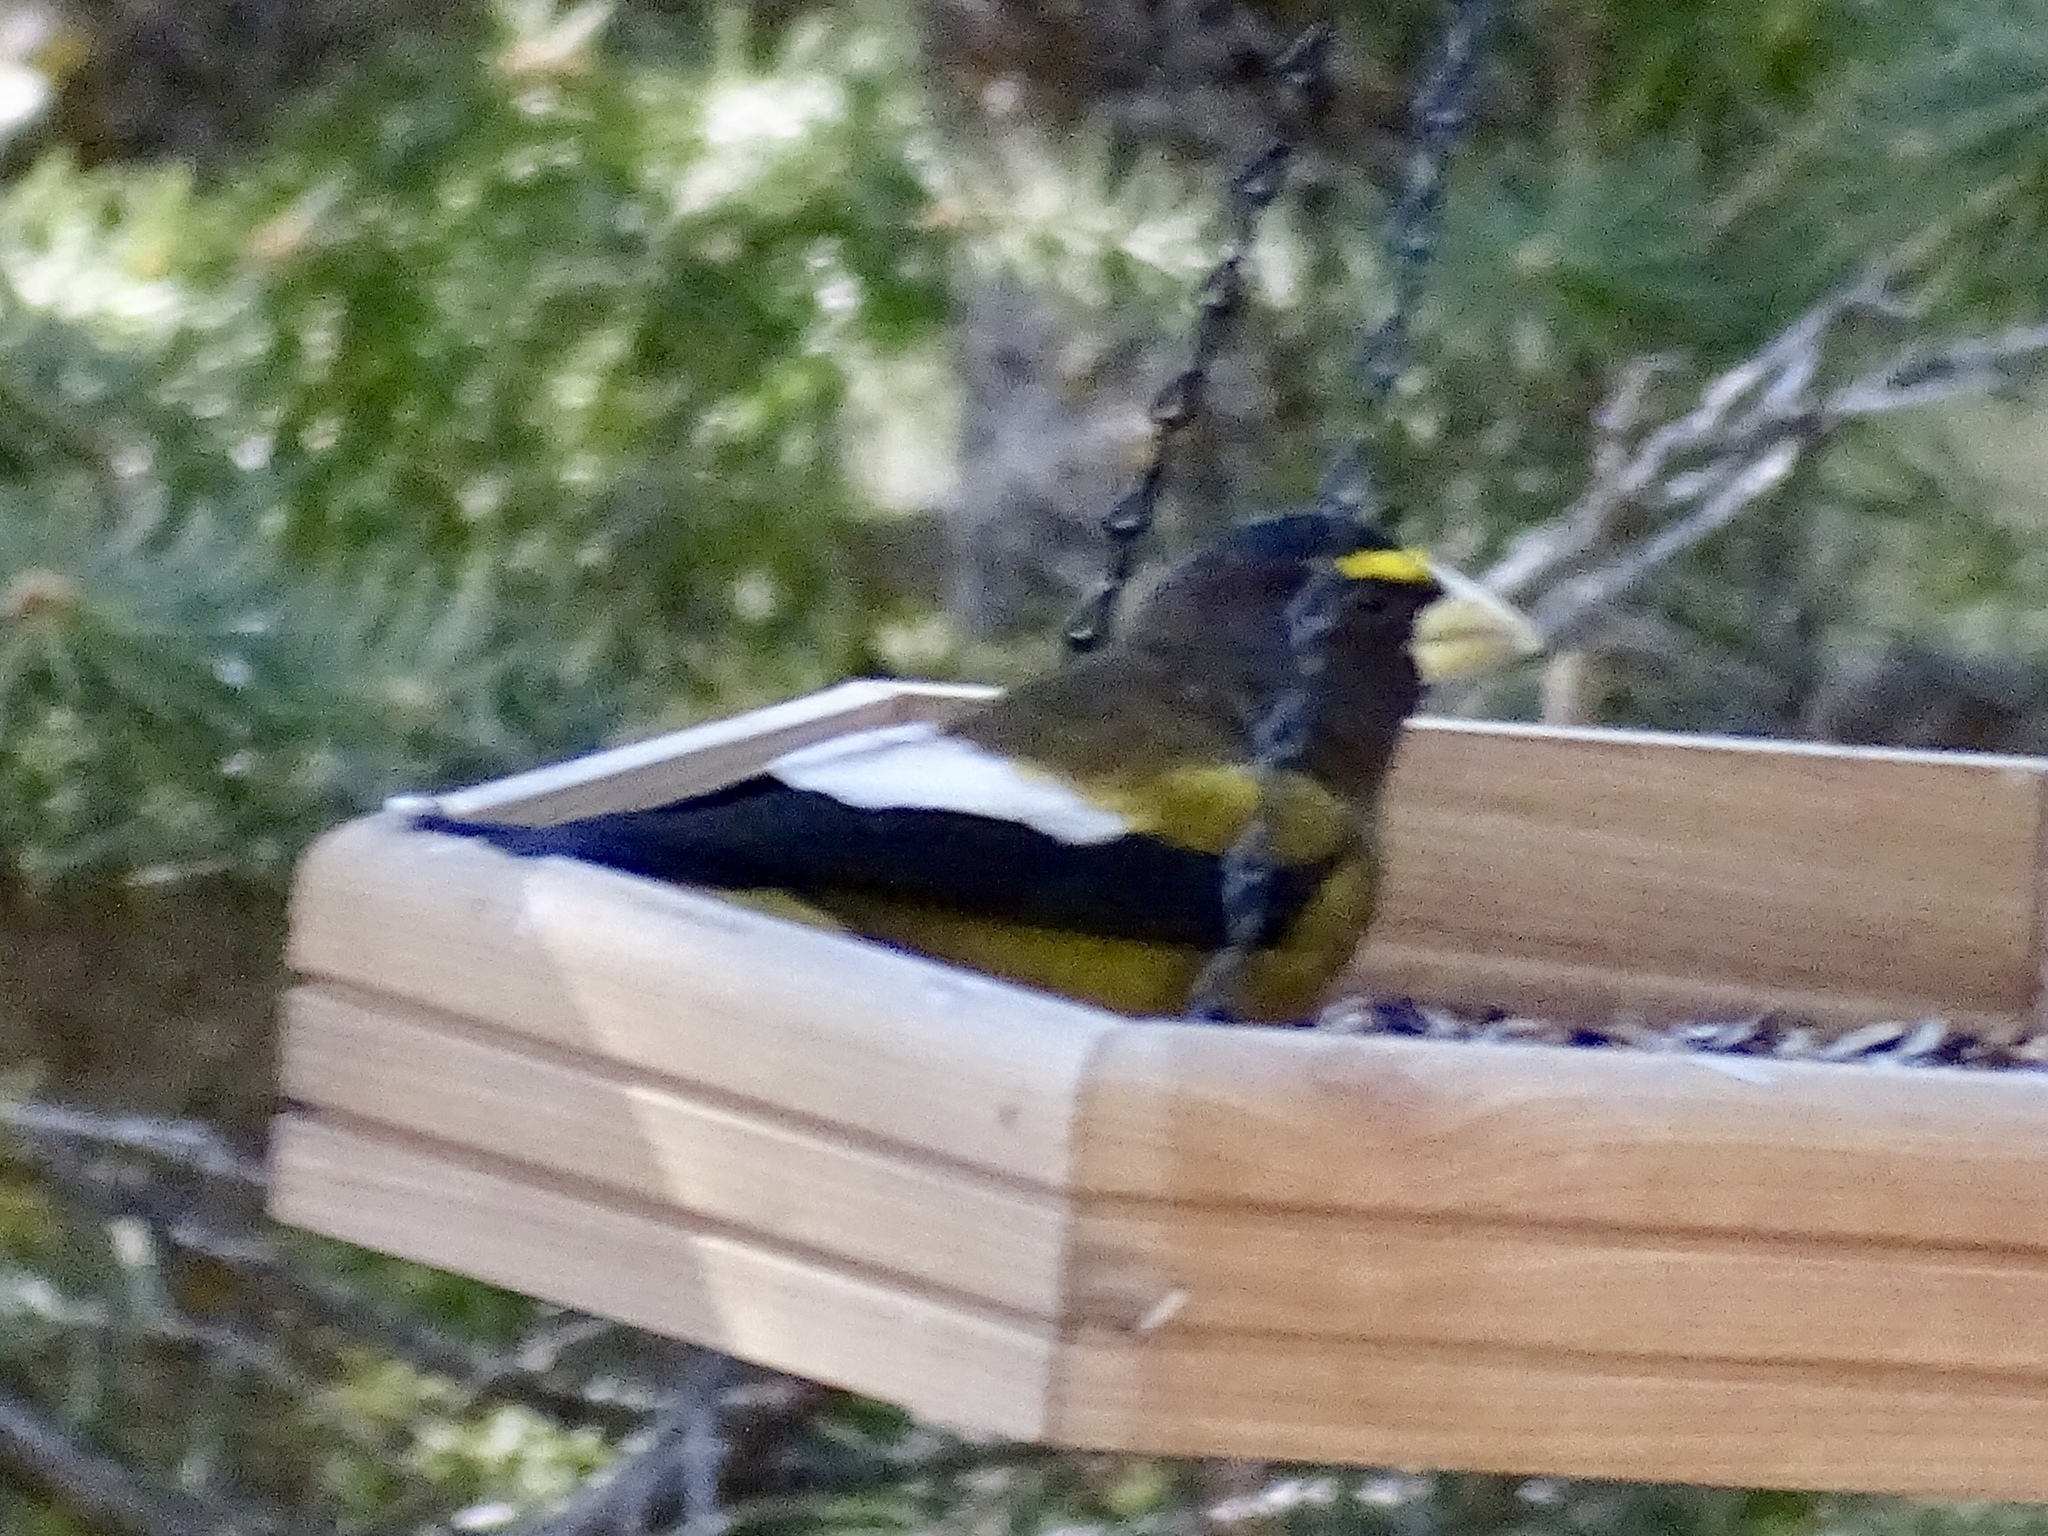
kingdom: Animalia
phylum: Chordata
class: Aves
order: Passeriformes
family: Fringillidae
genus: Hesperiphona
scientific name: Hesperiphona vespertina
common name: Evening grosbeak
